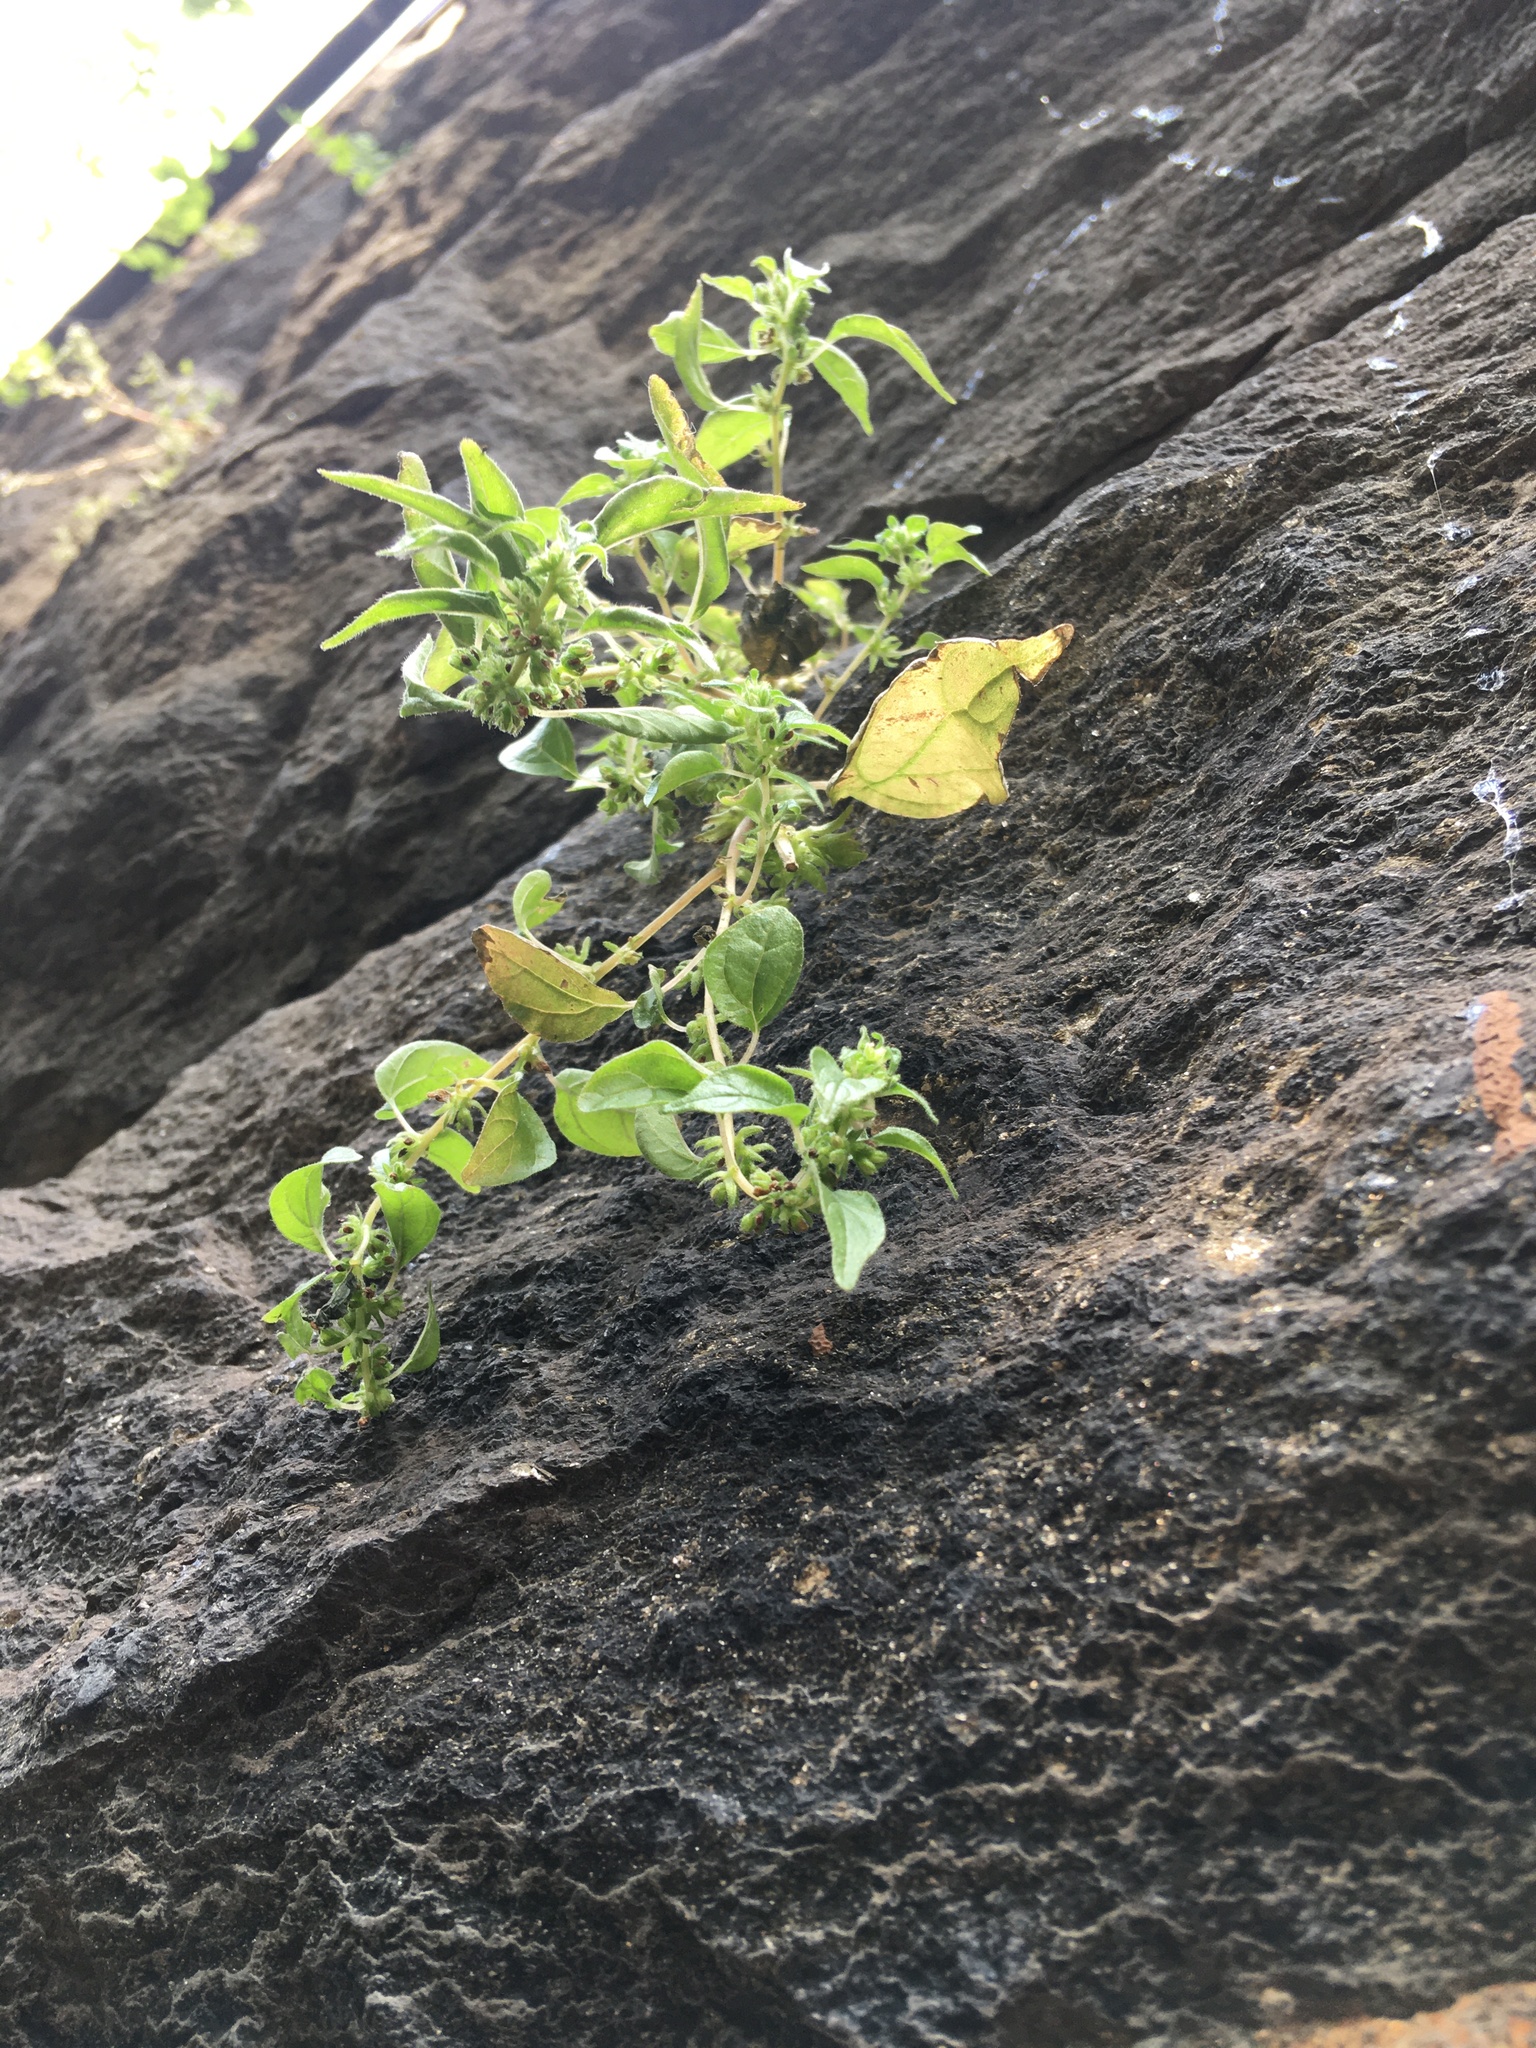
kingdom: Plantae
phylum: Tracheophyta
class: Magnoliopsida
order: Rosales
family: Urticaceae
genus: Parietaria
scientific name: Parietaria pensylvanica
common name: Pennsylvania pellitory
